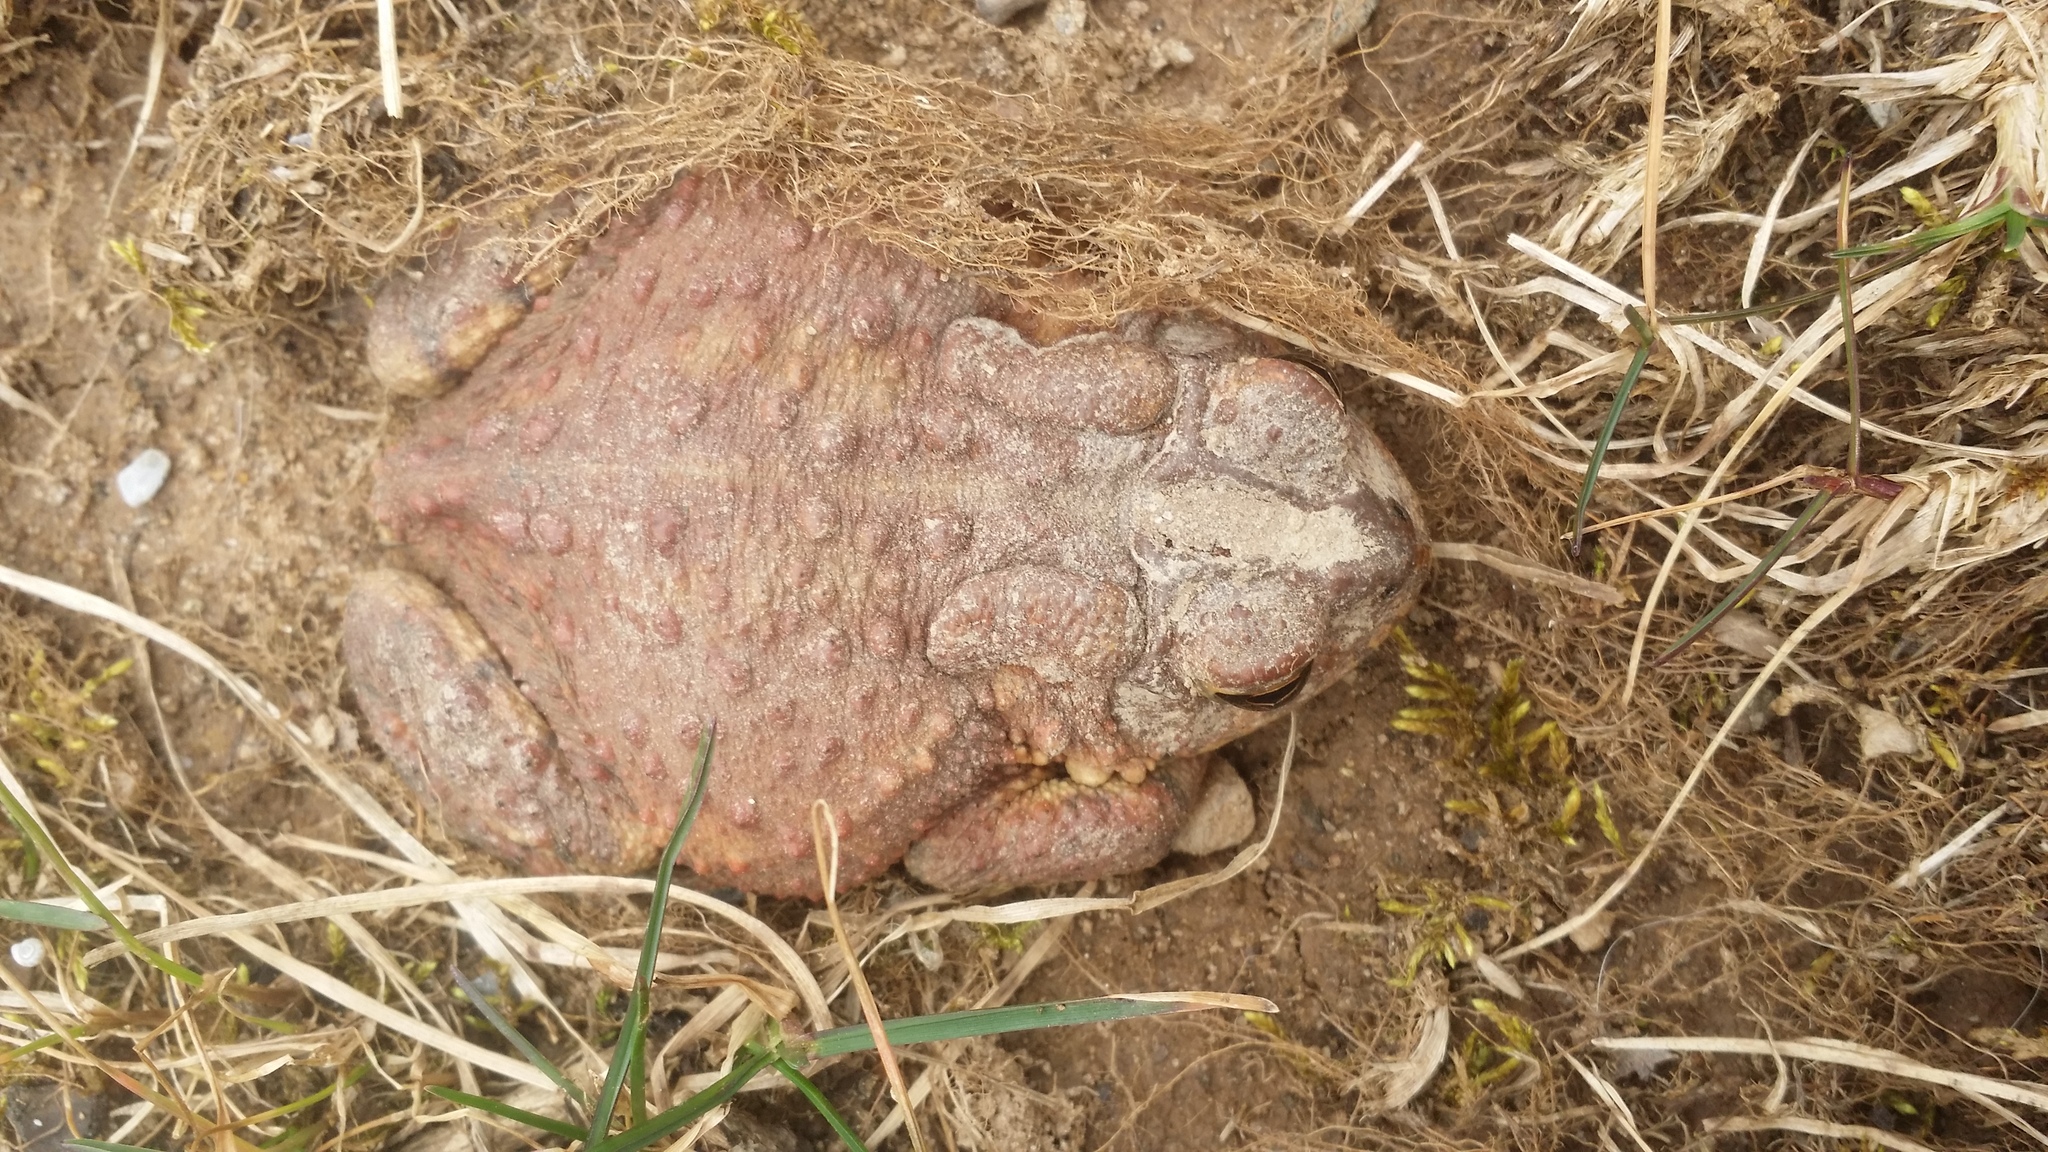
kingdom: Animalia
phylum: Chordata
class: Amphibia
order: Anura
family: Bufonidae
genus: Anaxyrus
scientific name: Anaxyrus americanus
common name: American toad
